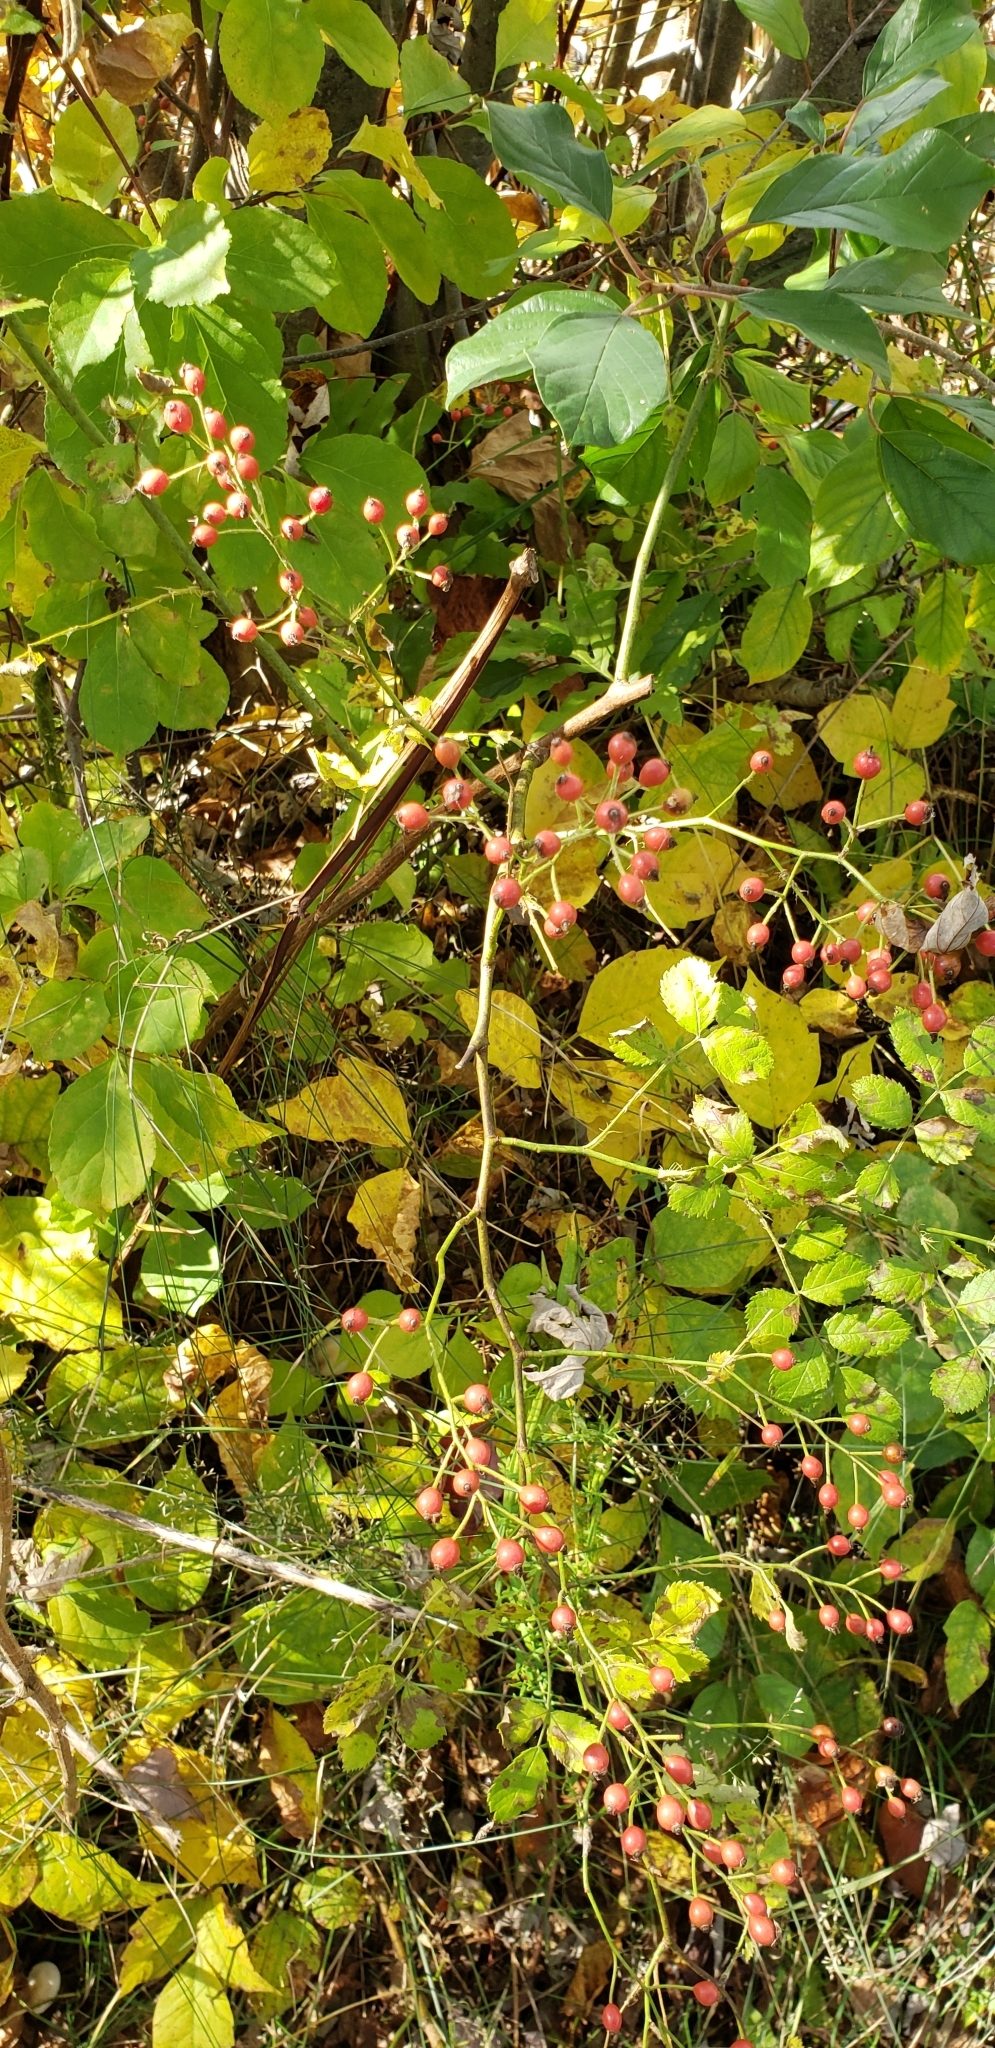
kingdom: Plantae
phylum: Tracheophyta
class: Magnoliopsida
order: Rosales
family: Rosaceae
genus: Rosa
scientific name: Rosa multiflora
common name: Multiflora rose
